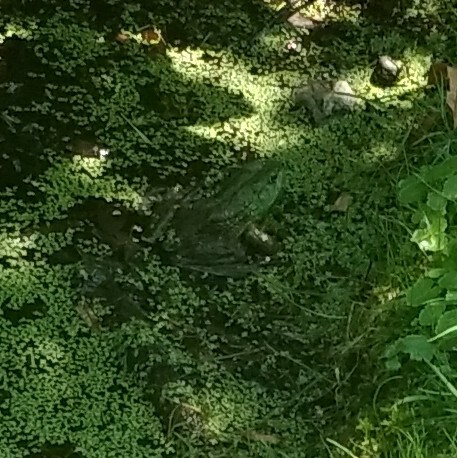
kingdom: Animalia
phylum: Chordata
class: Amphibia
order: Anura
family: Ranidae
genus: Lithobates
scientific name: Lithobates clamitans
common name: Green frog
